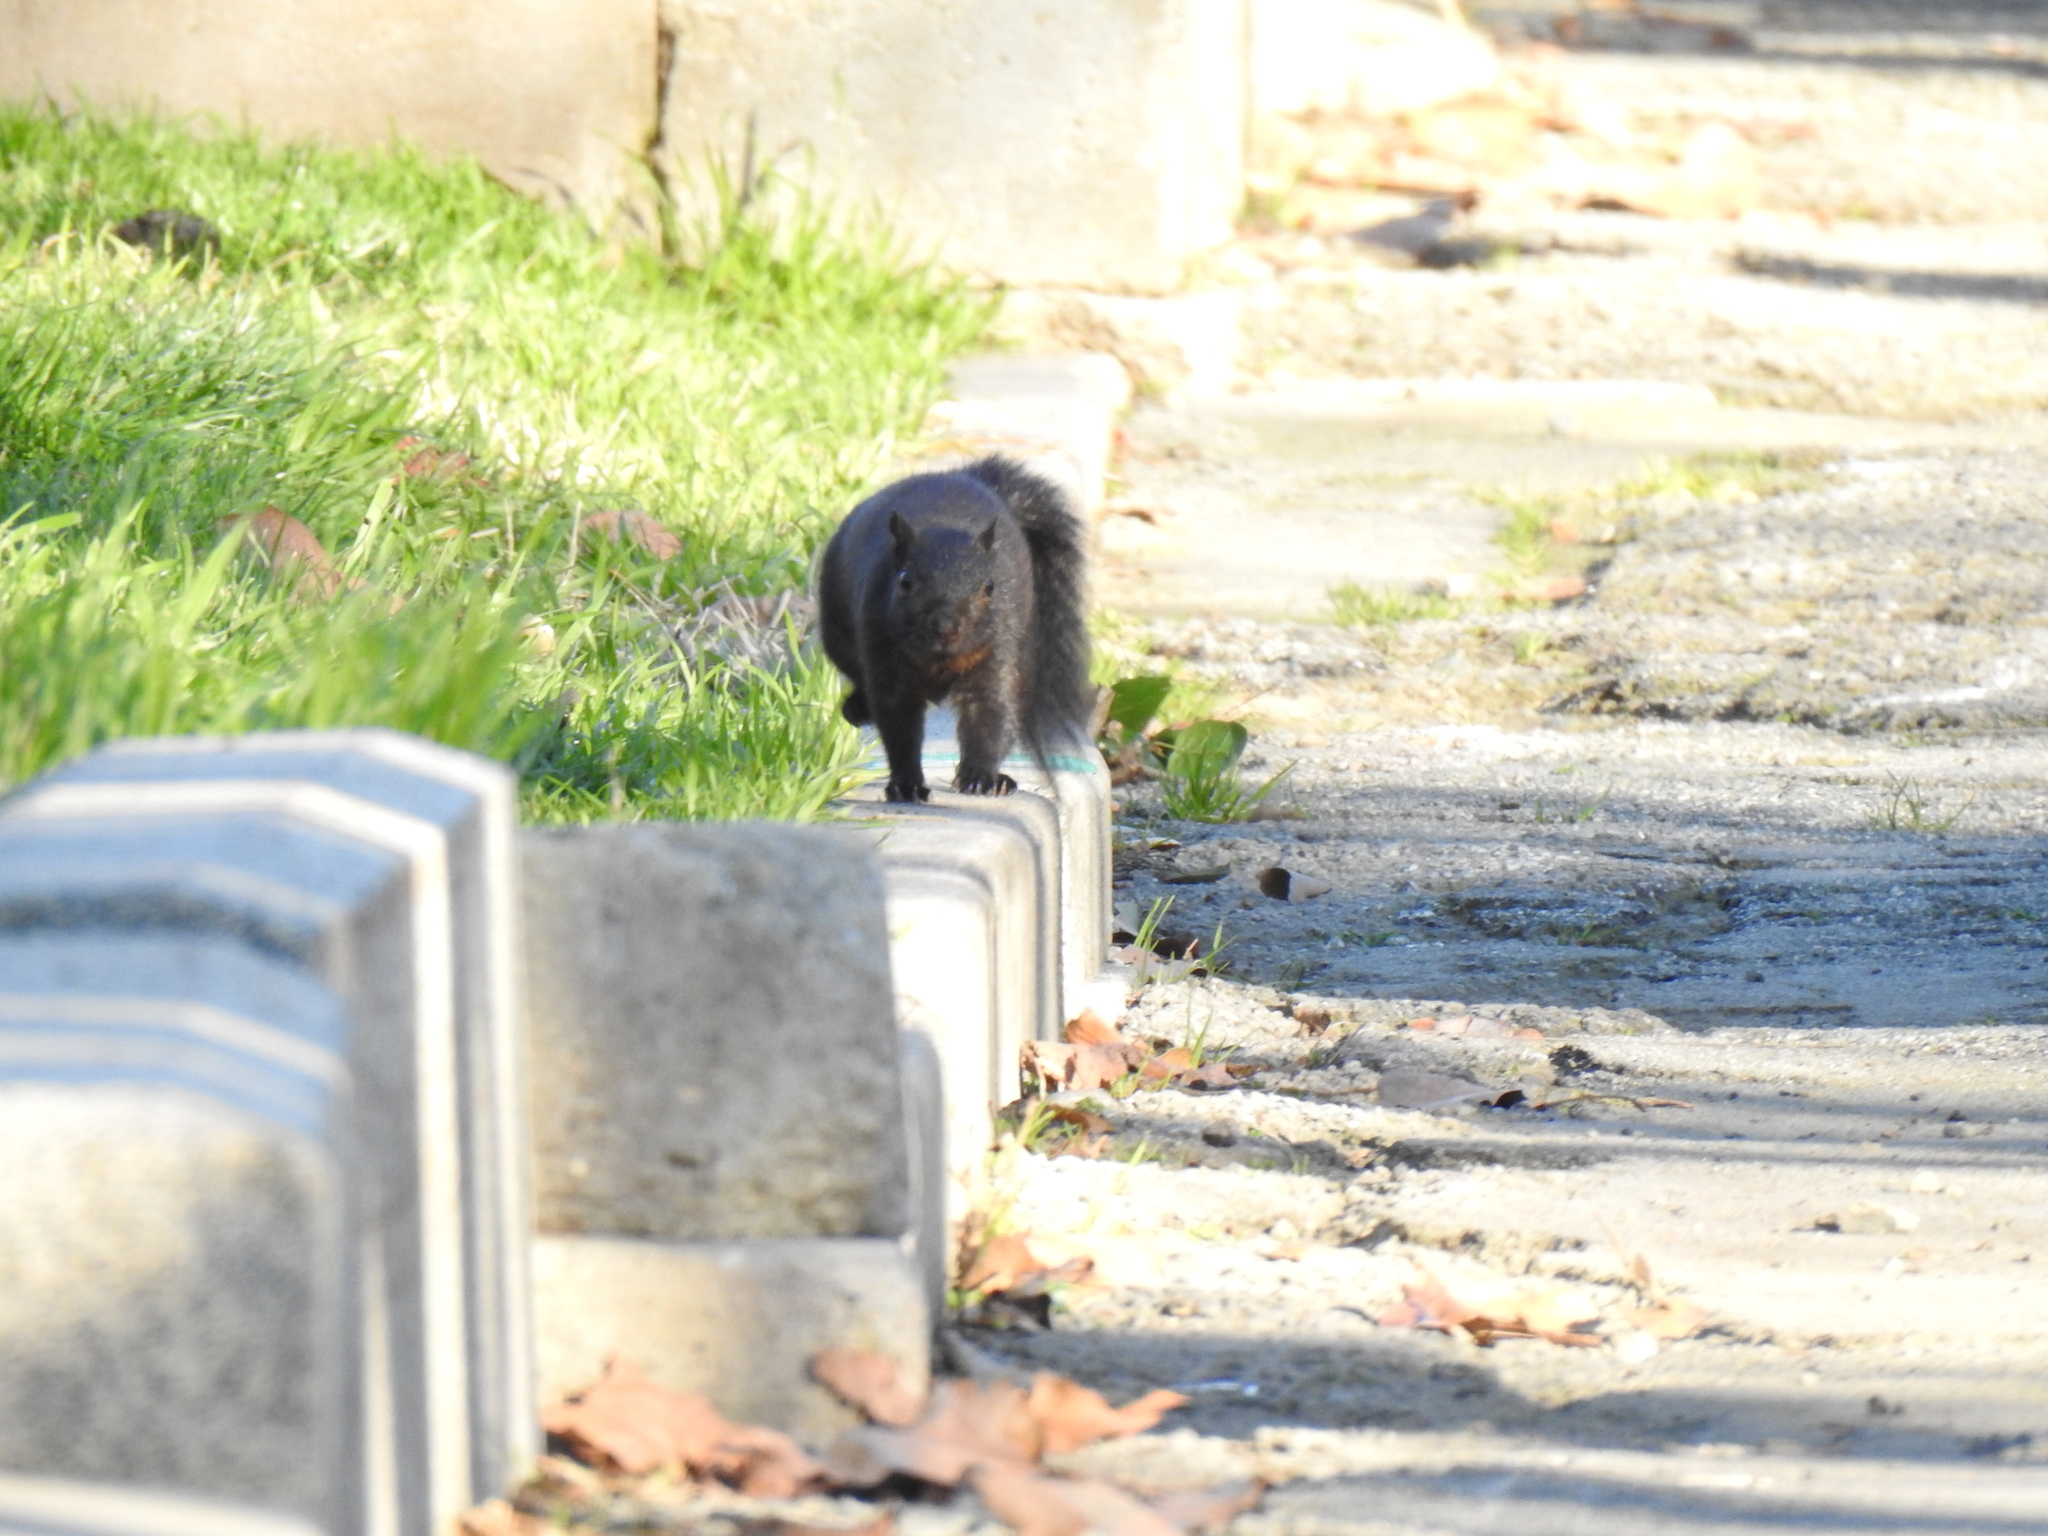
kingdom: Animalia
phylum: Chordata
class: Mammalia
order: Rodentia
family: Sciuridae
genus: Sciurus
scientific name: Sciurus carolinensis
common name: Eastern gray squirrel
